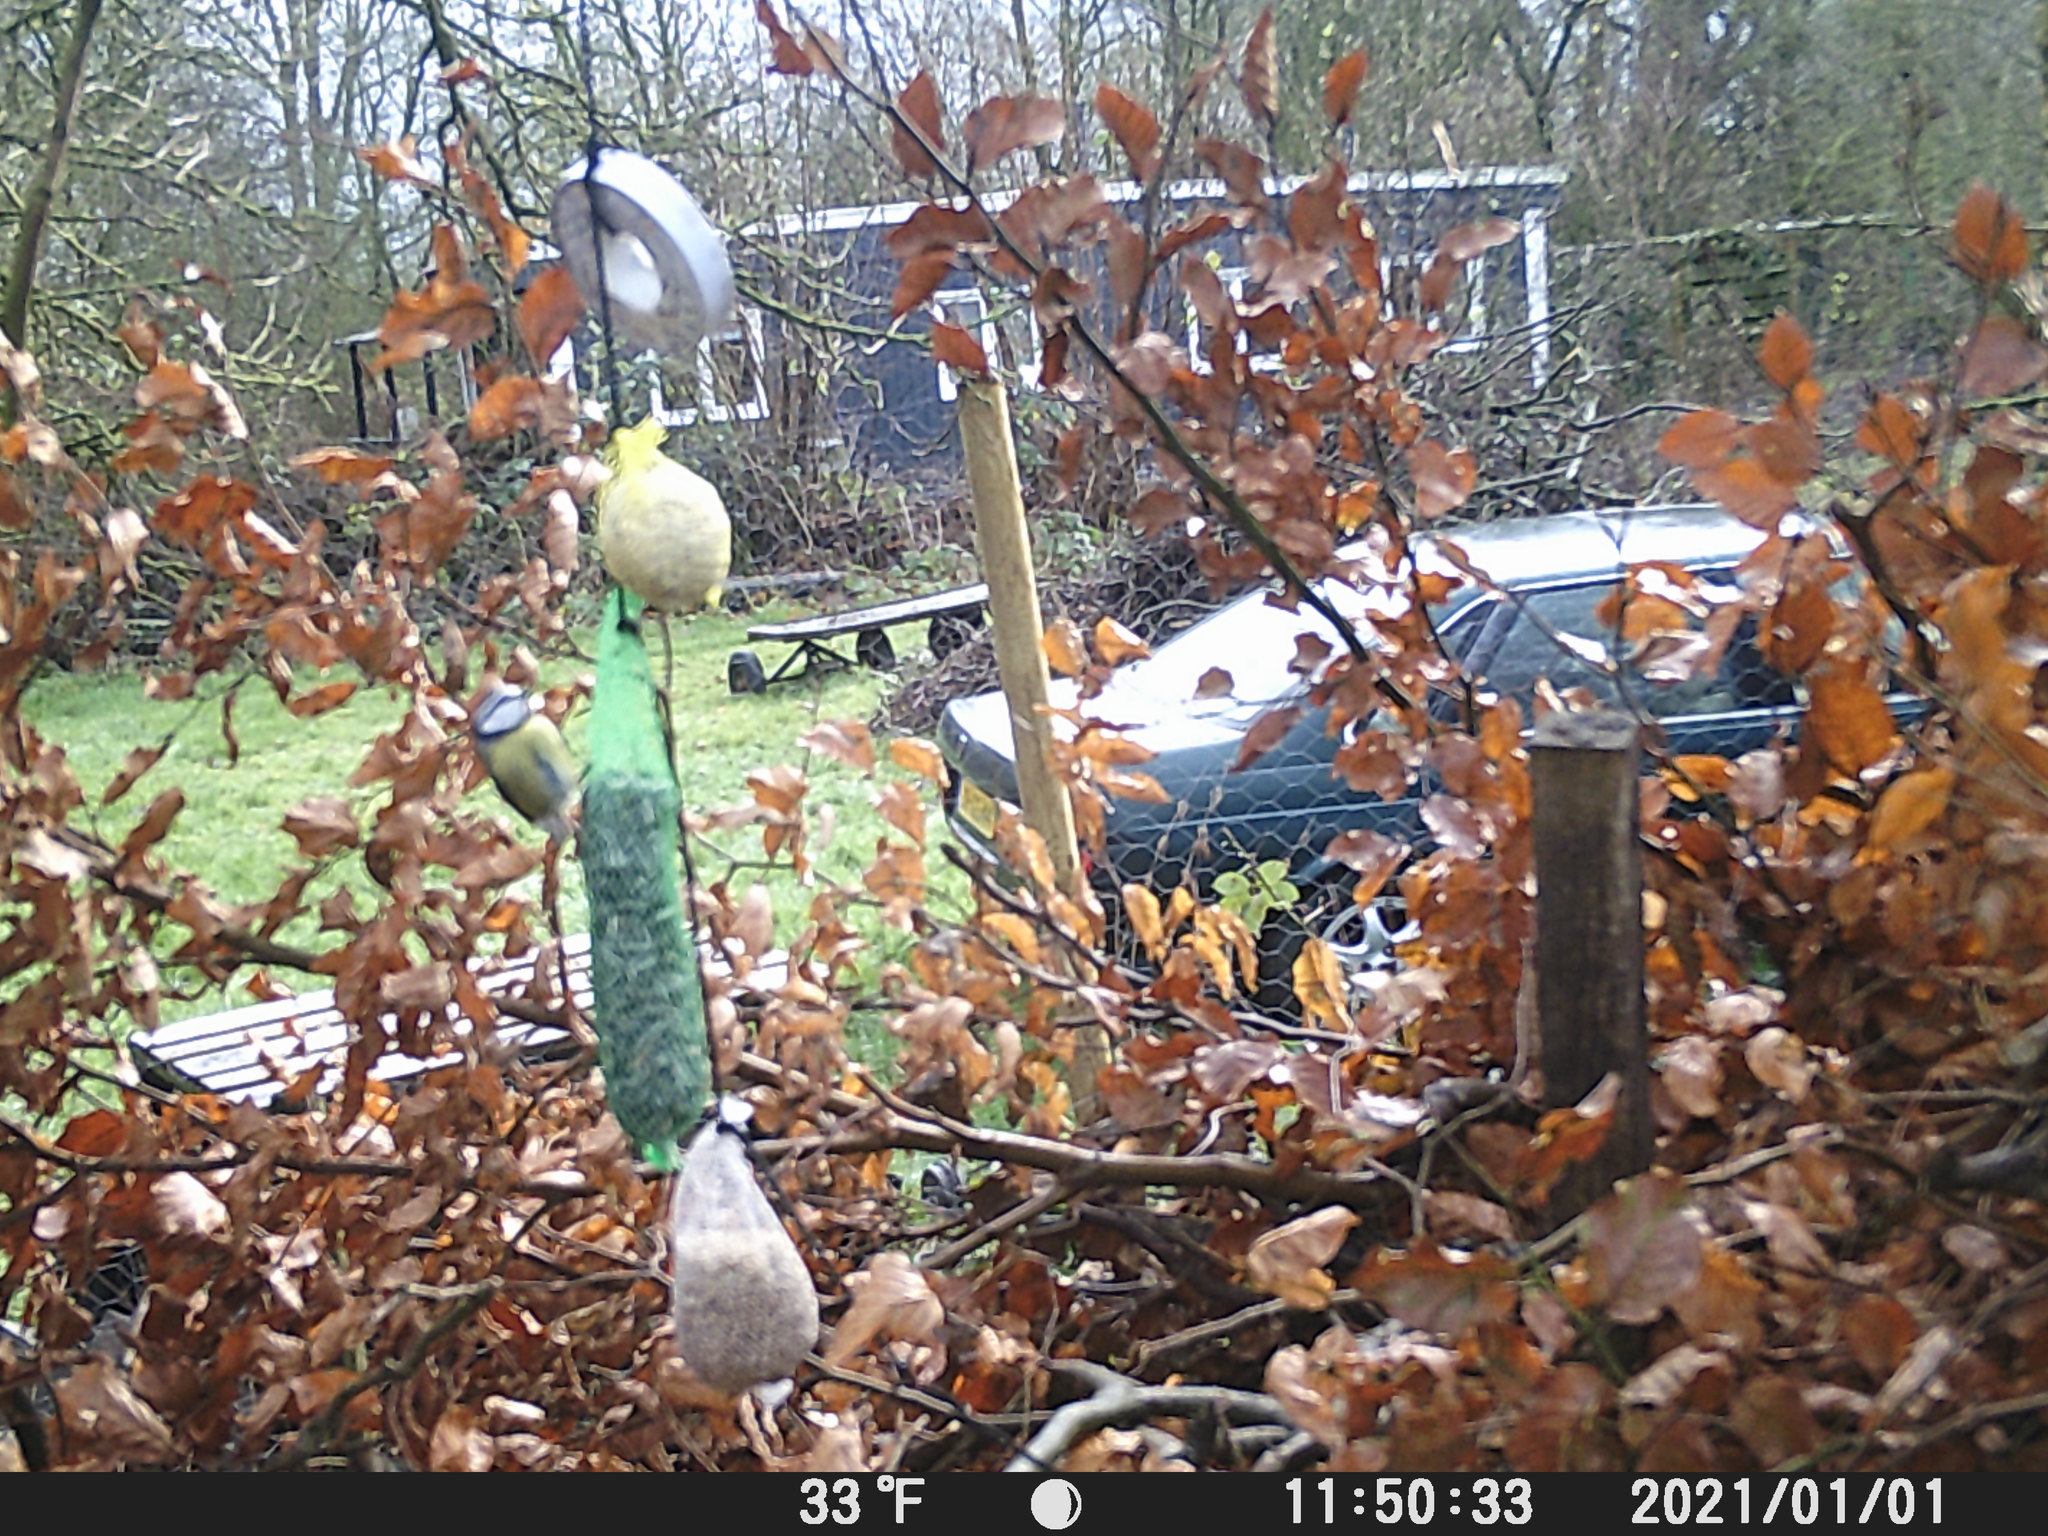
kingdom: Animalia
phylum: Chordata
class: Aves
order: Passeriformes
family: Paridae
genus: Cyanistes
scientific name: Cyanistes caeruleus
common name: Eurasian blue tit
